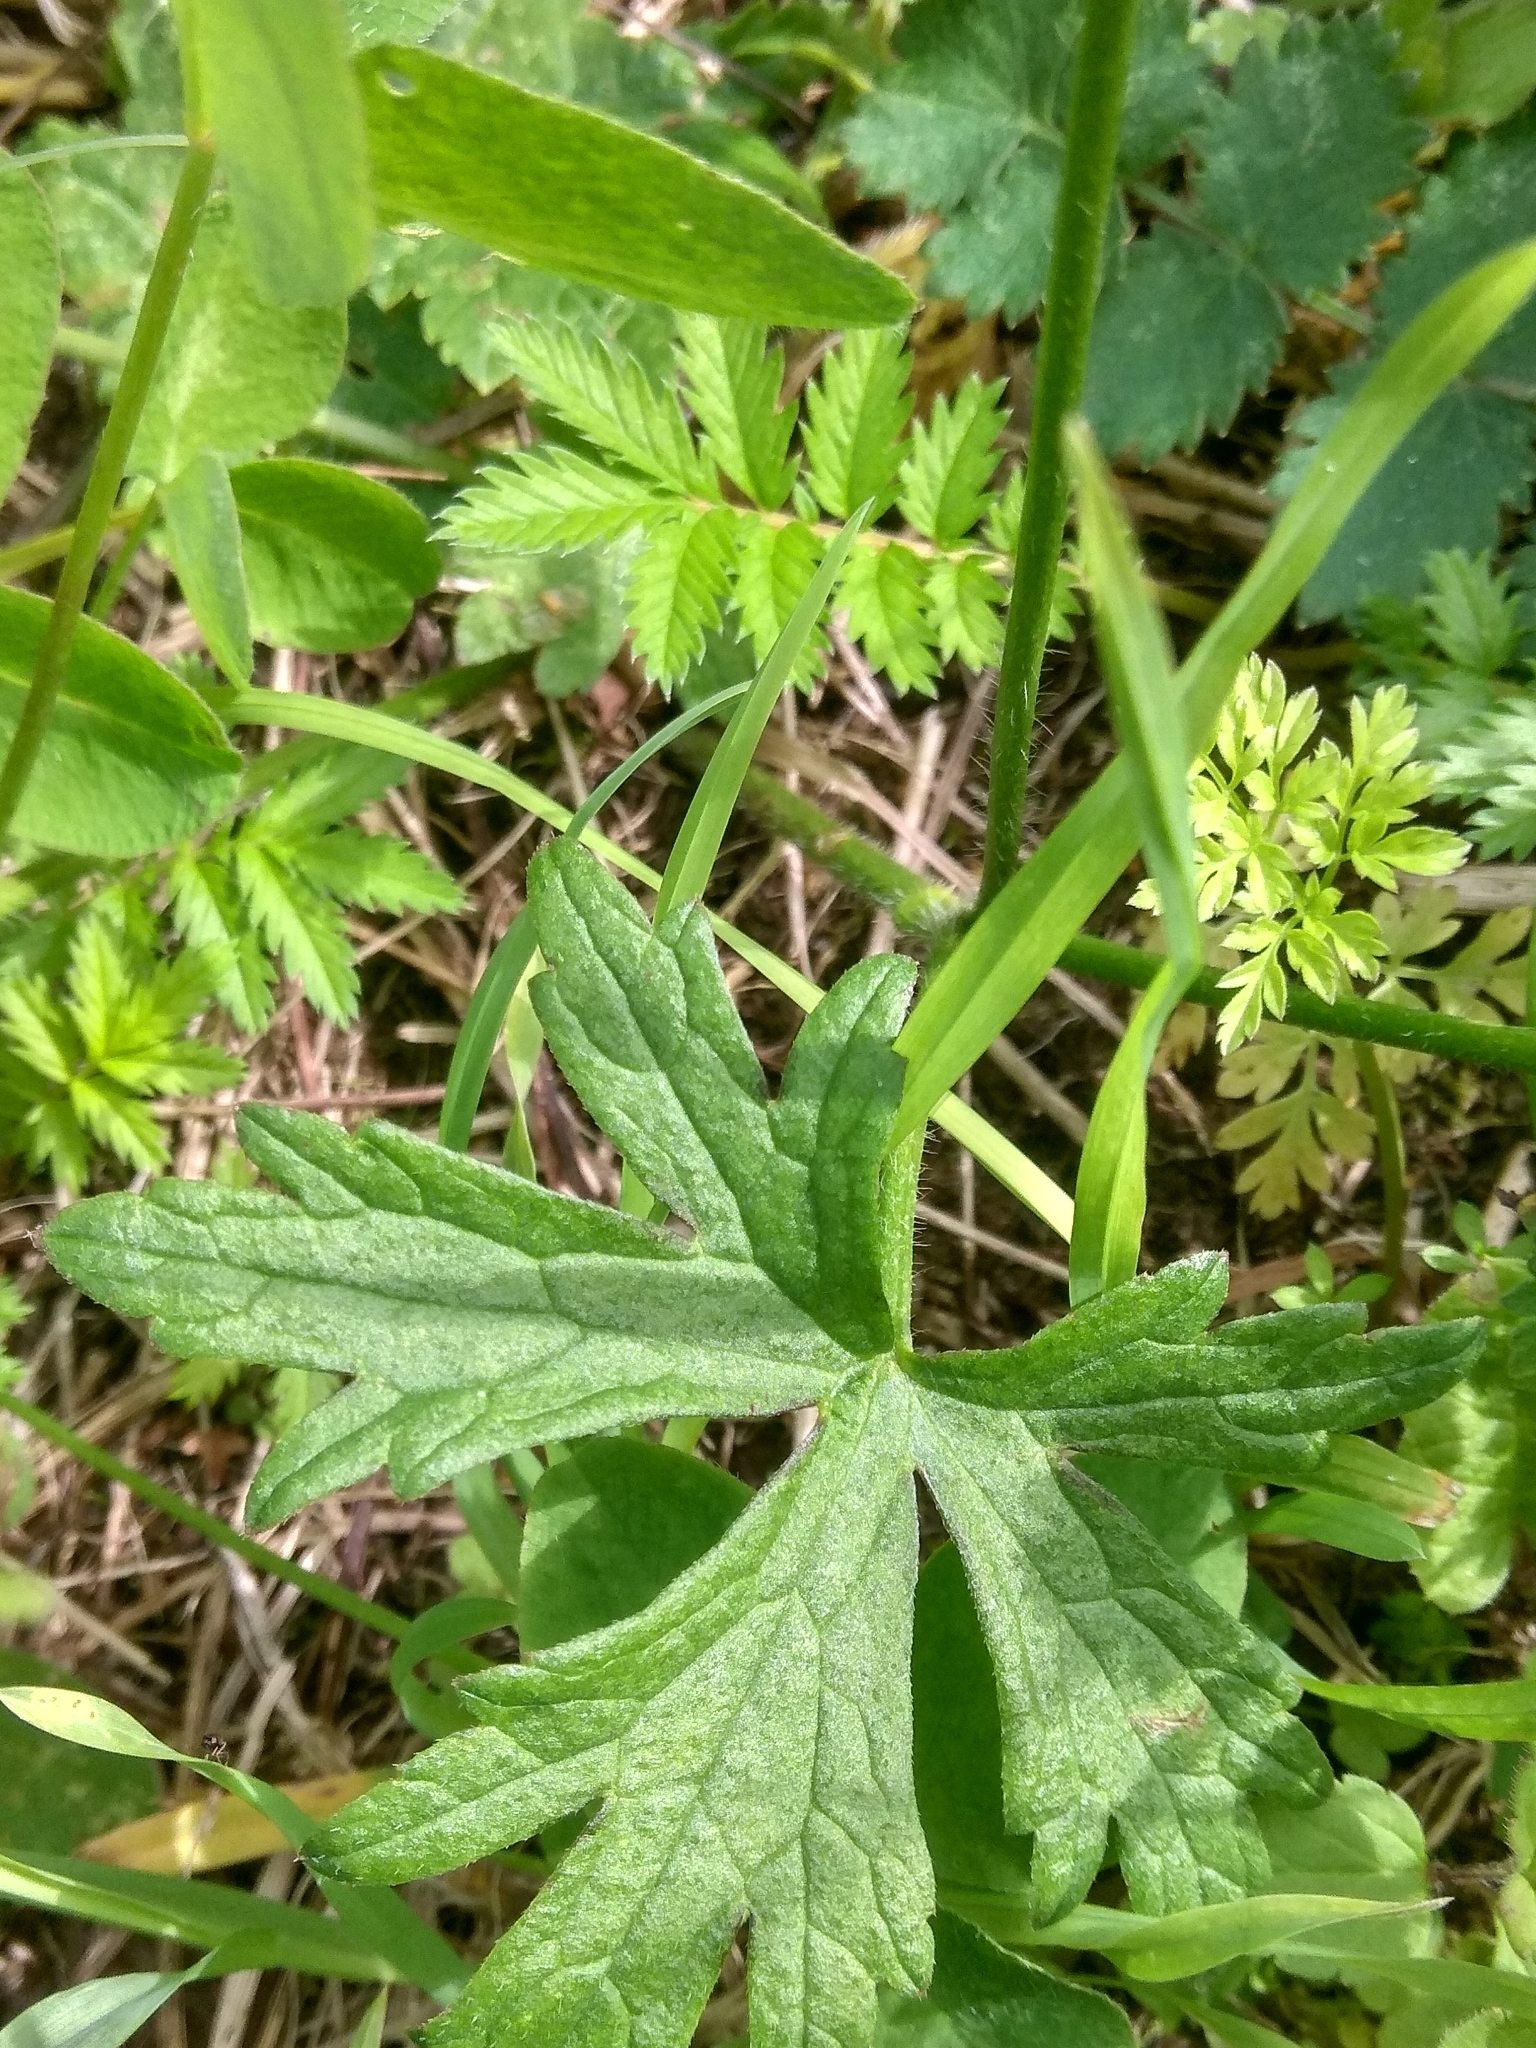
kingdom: Plantae
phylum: Tracheophyta
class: Magnoliopsida
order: Ranunculales
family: Ranunculaceae
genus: Ranunculus
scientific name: Ranunculus polyanthemos
